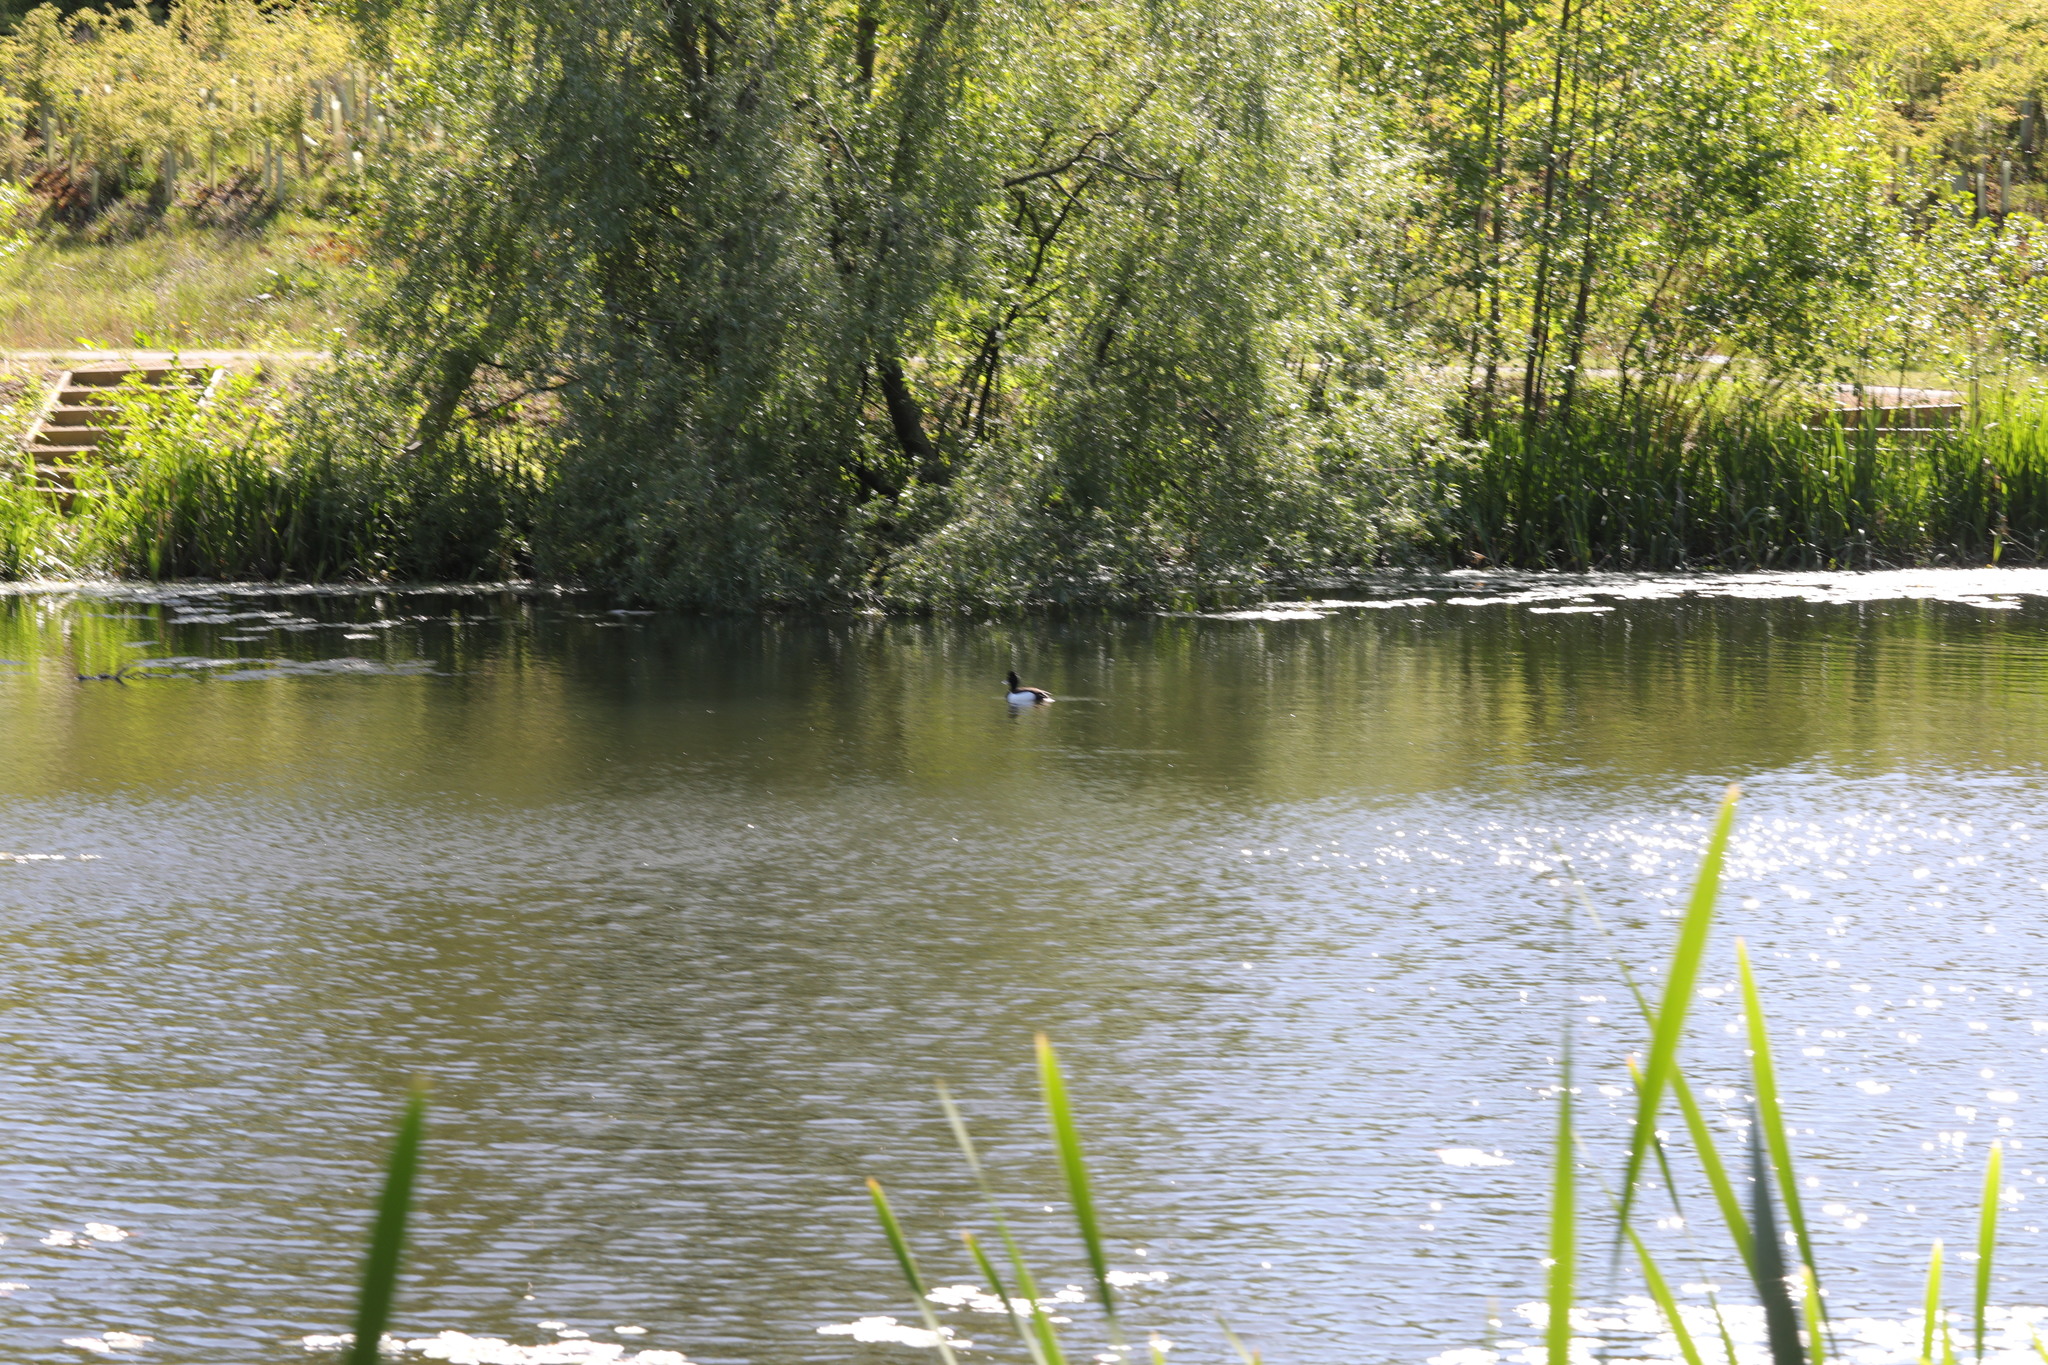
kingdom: Animalia
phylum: Chordata
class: Aves
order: Anseriformes
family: Anatidae
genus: Aythya
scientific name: Aythya fuligula
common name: Tufted duck
